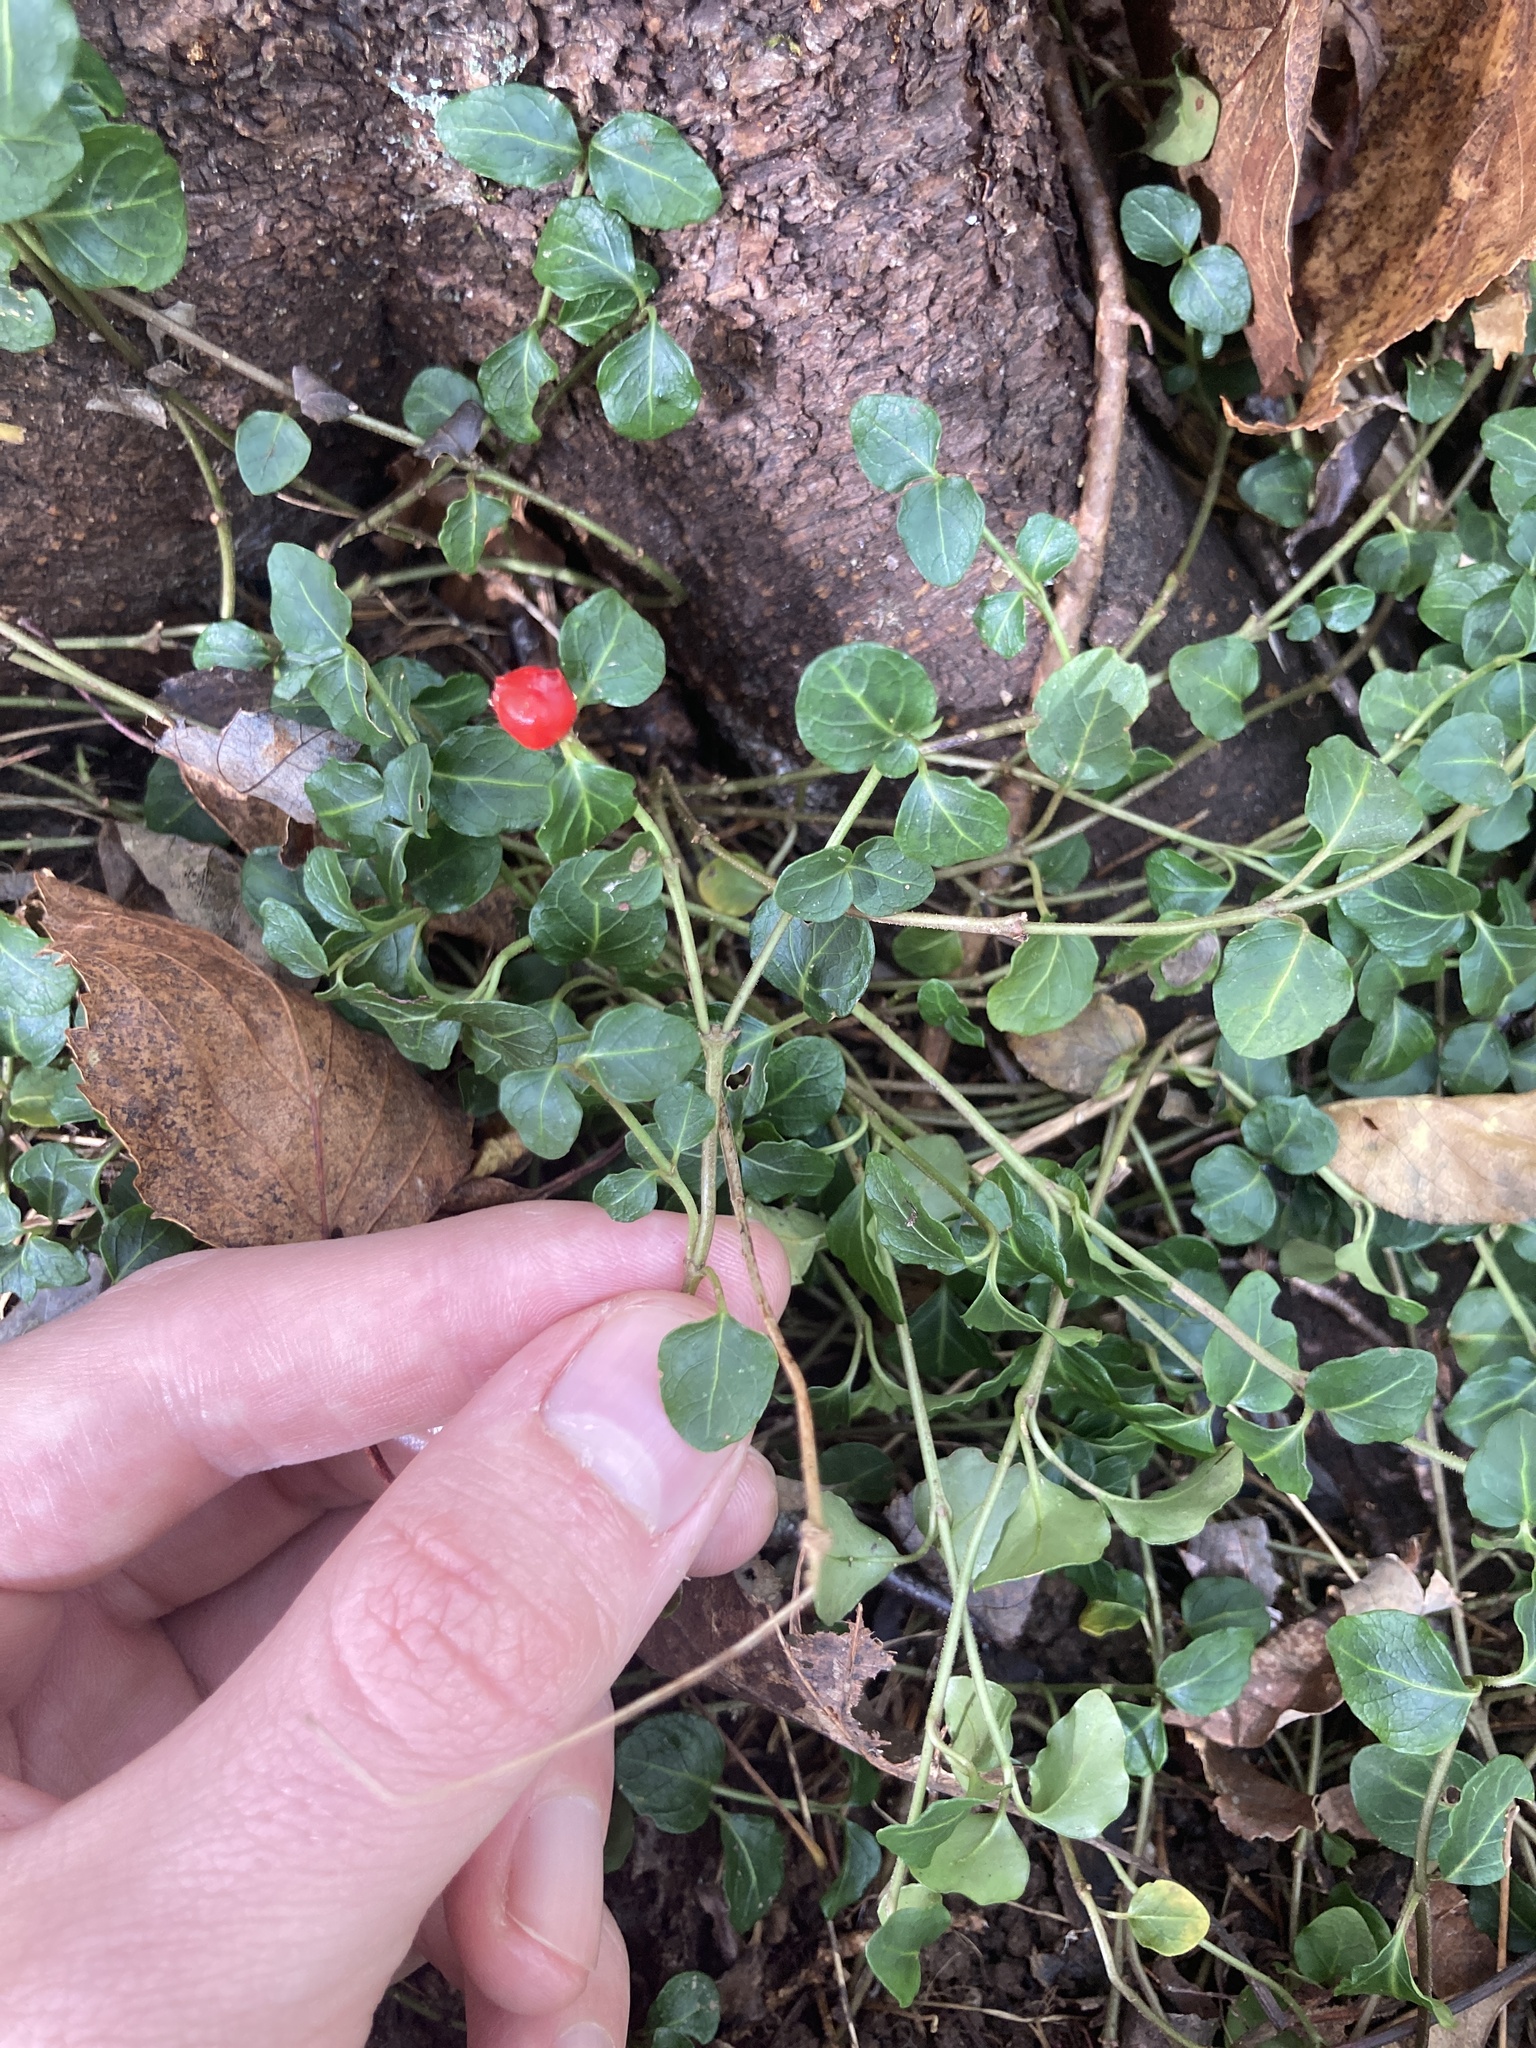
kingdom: Plantae
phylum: Tracheophyta
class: Magnoliopsida
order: Gentianales
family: Rubiaceae
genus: Mitchella
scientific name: Mitchella repens
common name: Partridge-berry
